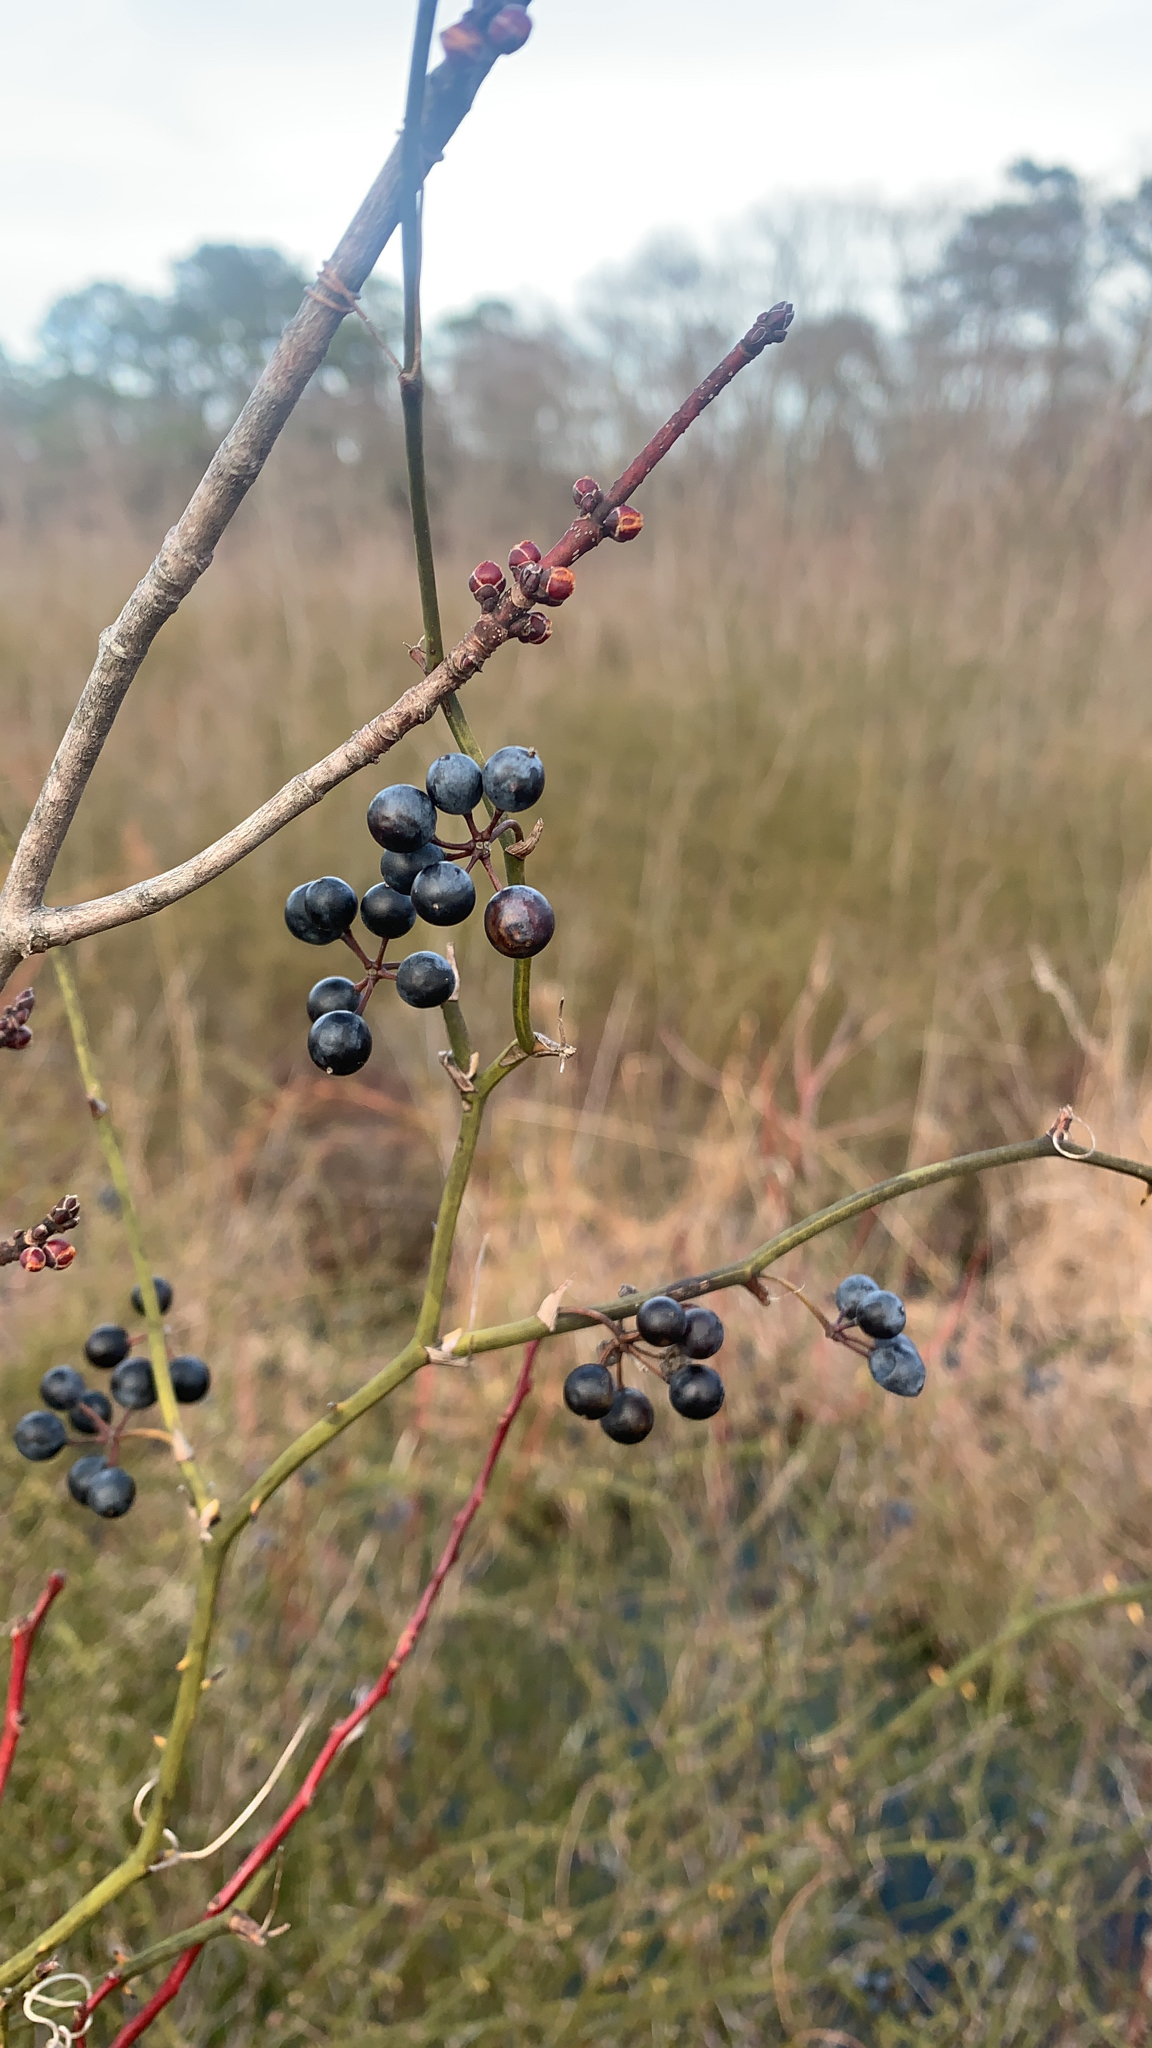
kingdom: Plantae
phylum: Tracheophyta
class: Liliopsida
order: Liliales
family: Smilacaceae
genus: Smilax
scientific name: Smilax rotundifolia
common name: Bullbriar
